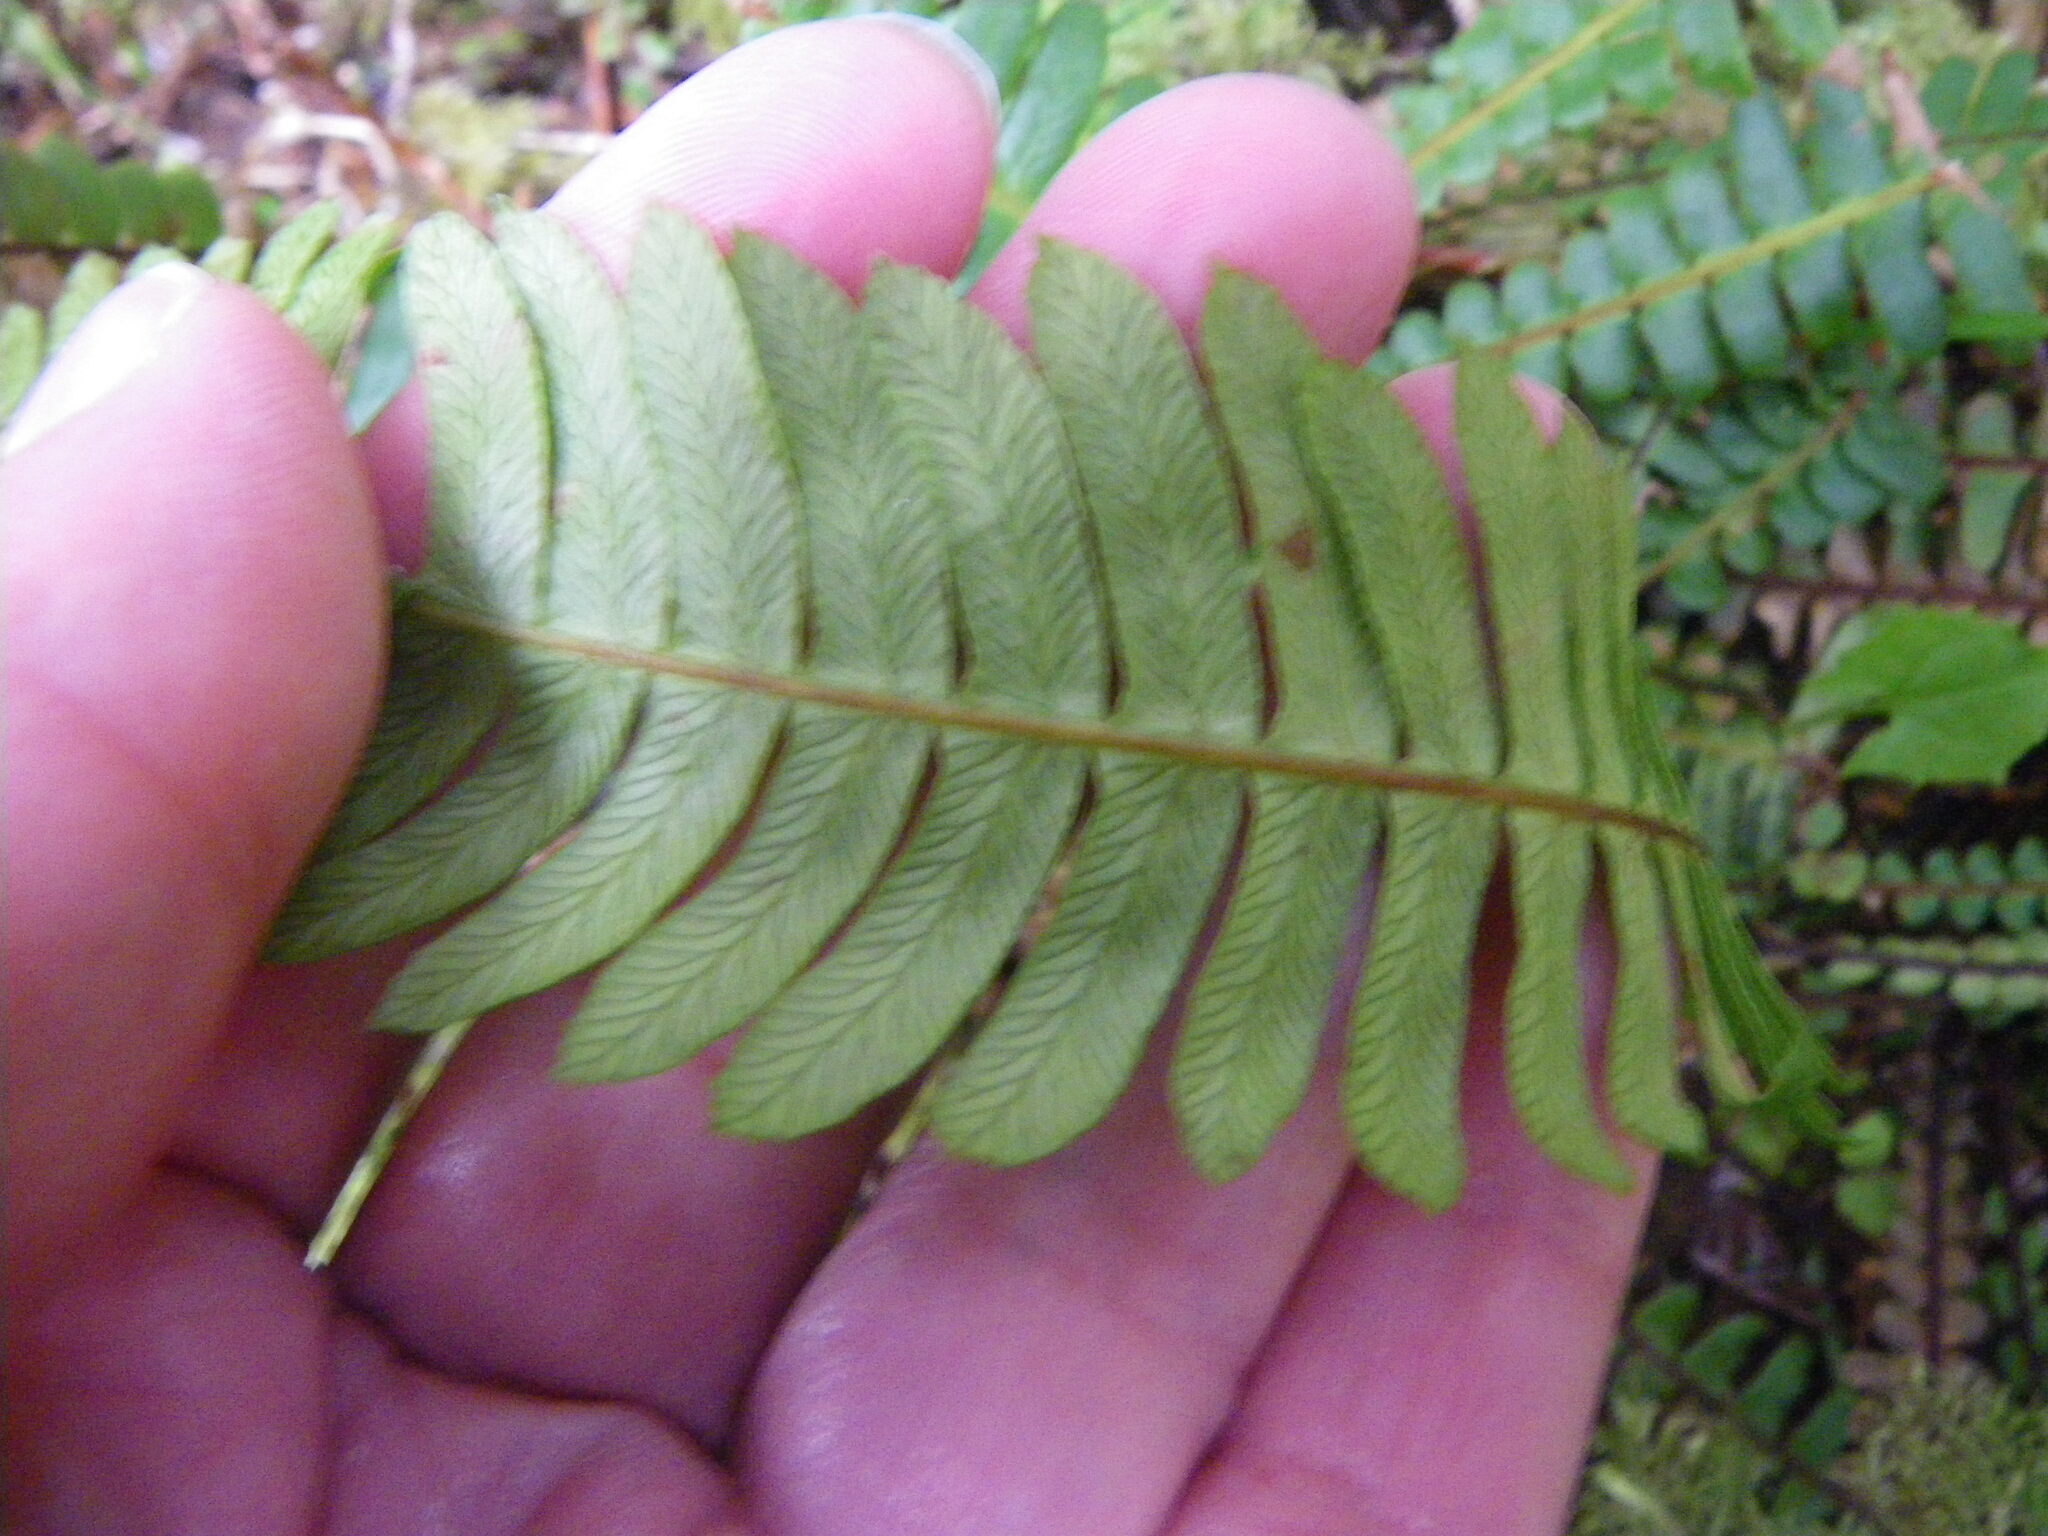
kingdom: Plantae
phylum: Tracheophyta
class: Polypodiopsida
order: Polypodiales
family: Blechnaceae
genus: Struthiopteris
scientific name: Struthiopteris spicant
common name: Deer fern
